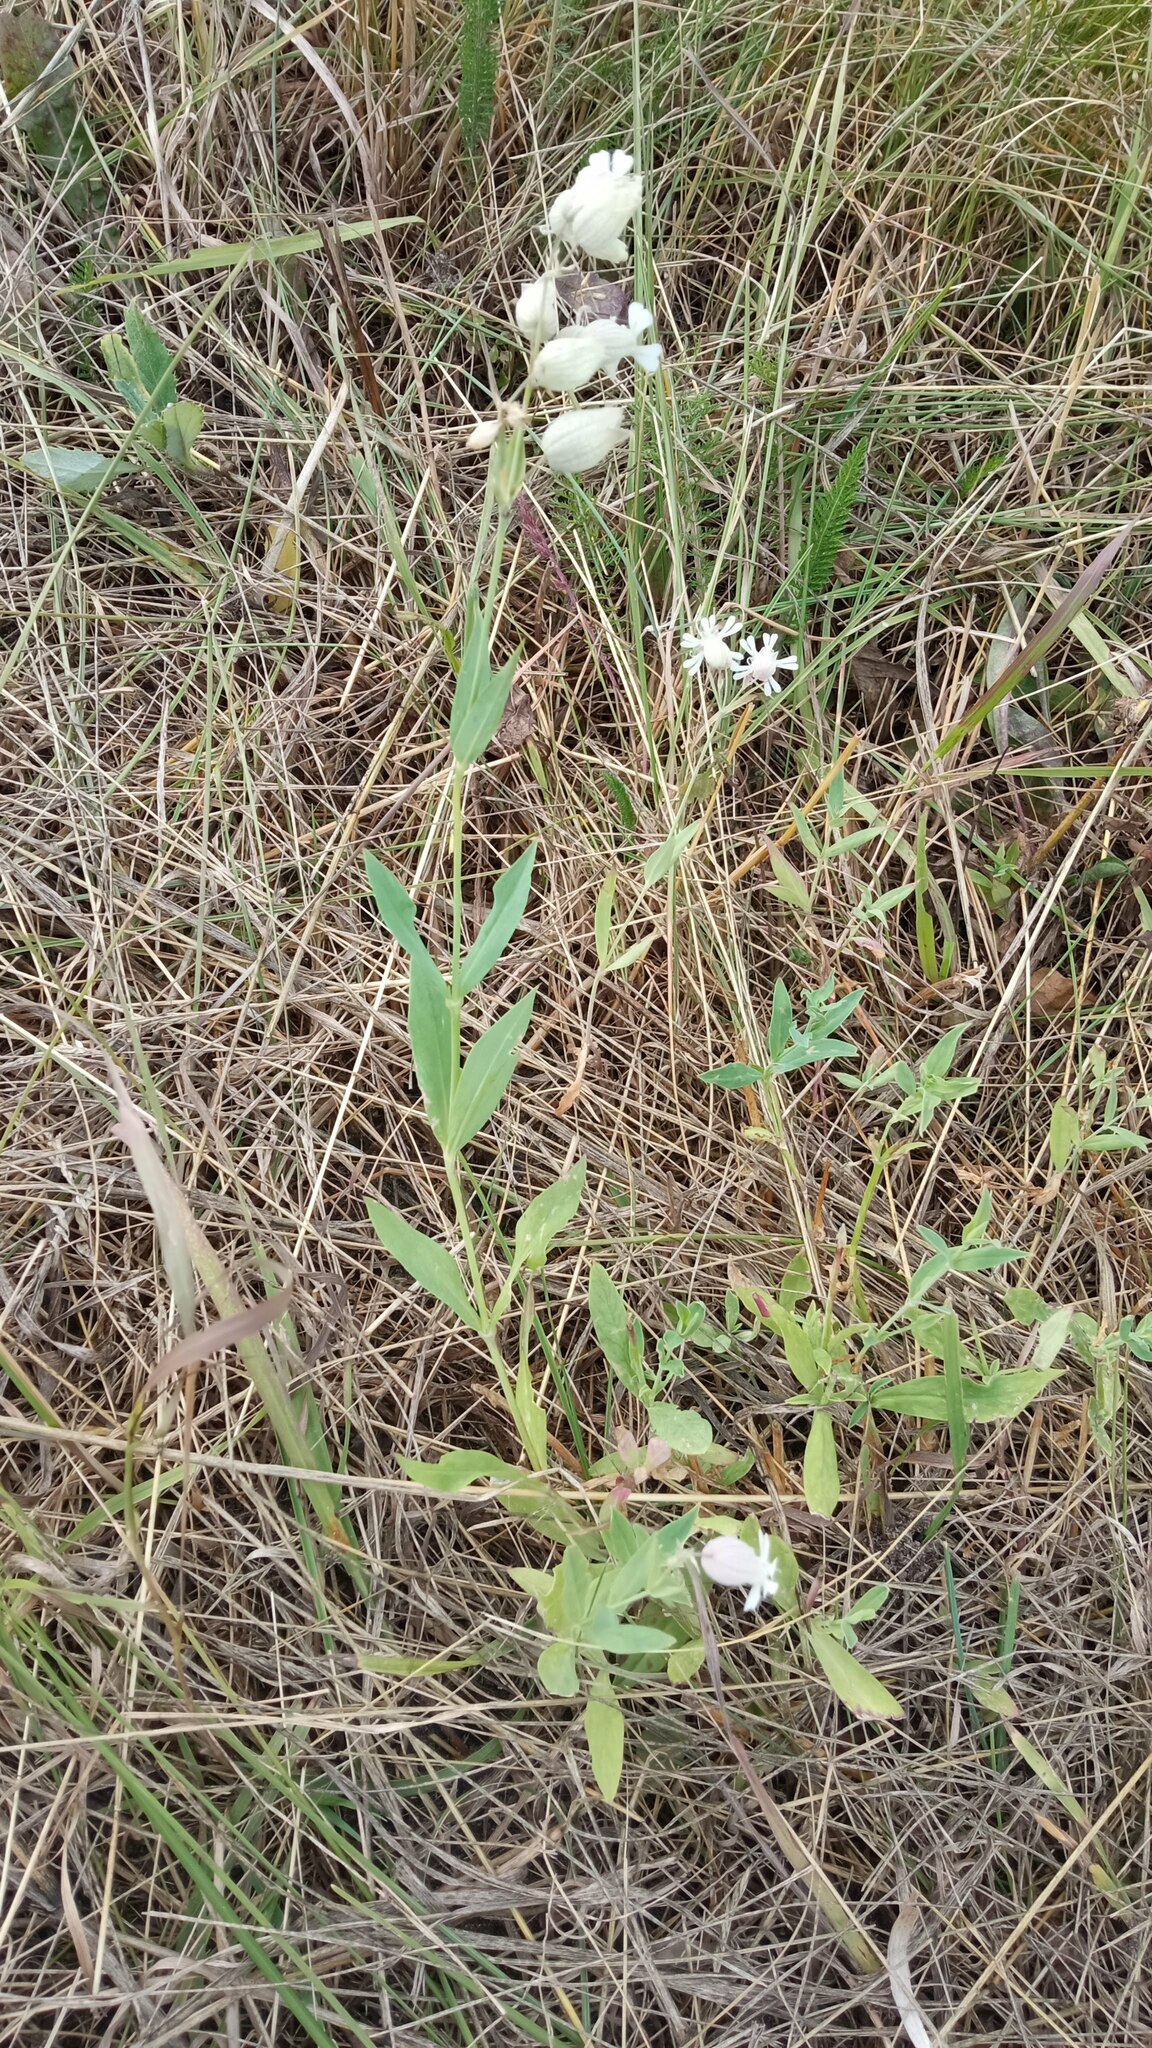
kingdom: Plantae
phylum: Tracheophyta
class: Magnoliopsida
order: Caryophyllales
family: Caryophyllaceae
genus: Silene
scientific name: Silene vulgaris
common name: Bladder campion
